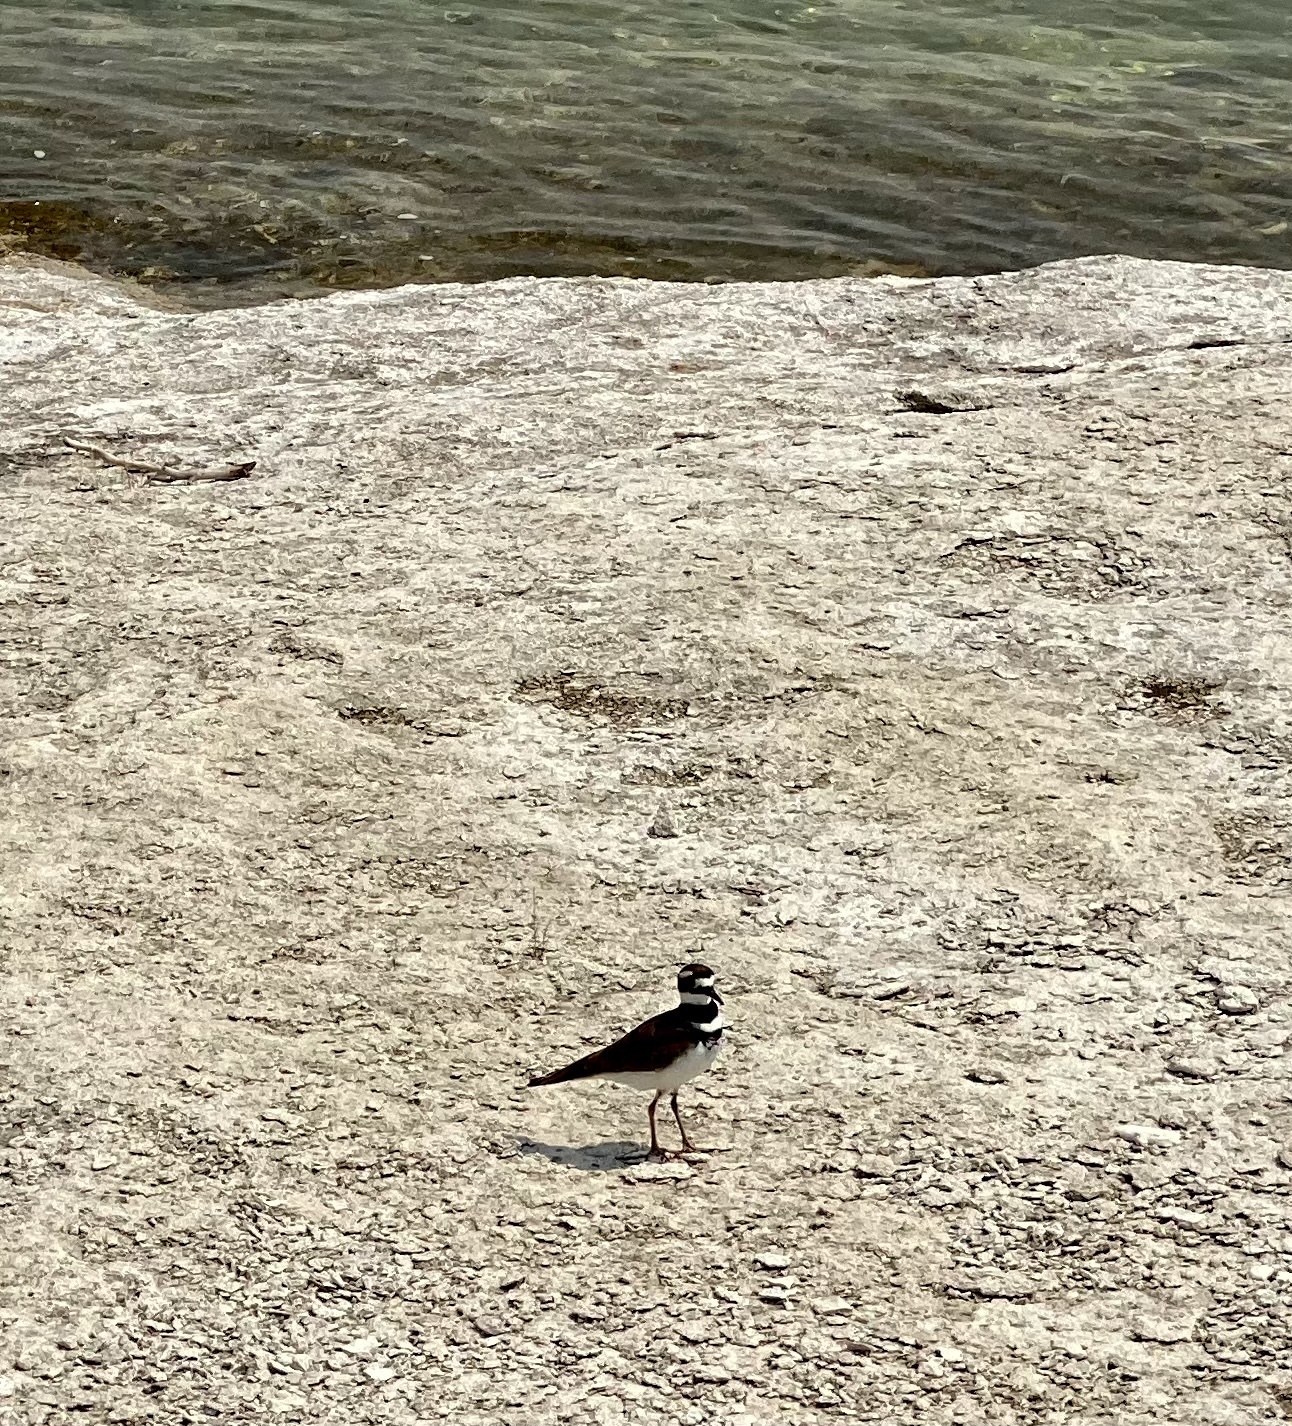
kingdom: Animalia
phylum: Chordata
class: Aves
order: Charadriiformes
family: Charadriidae
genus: Charadrius
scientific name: Charadrius vociferus
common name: Killdeer
